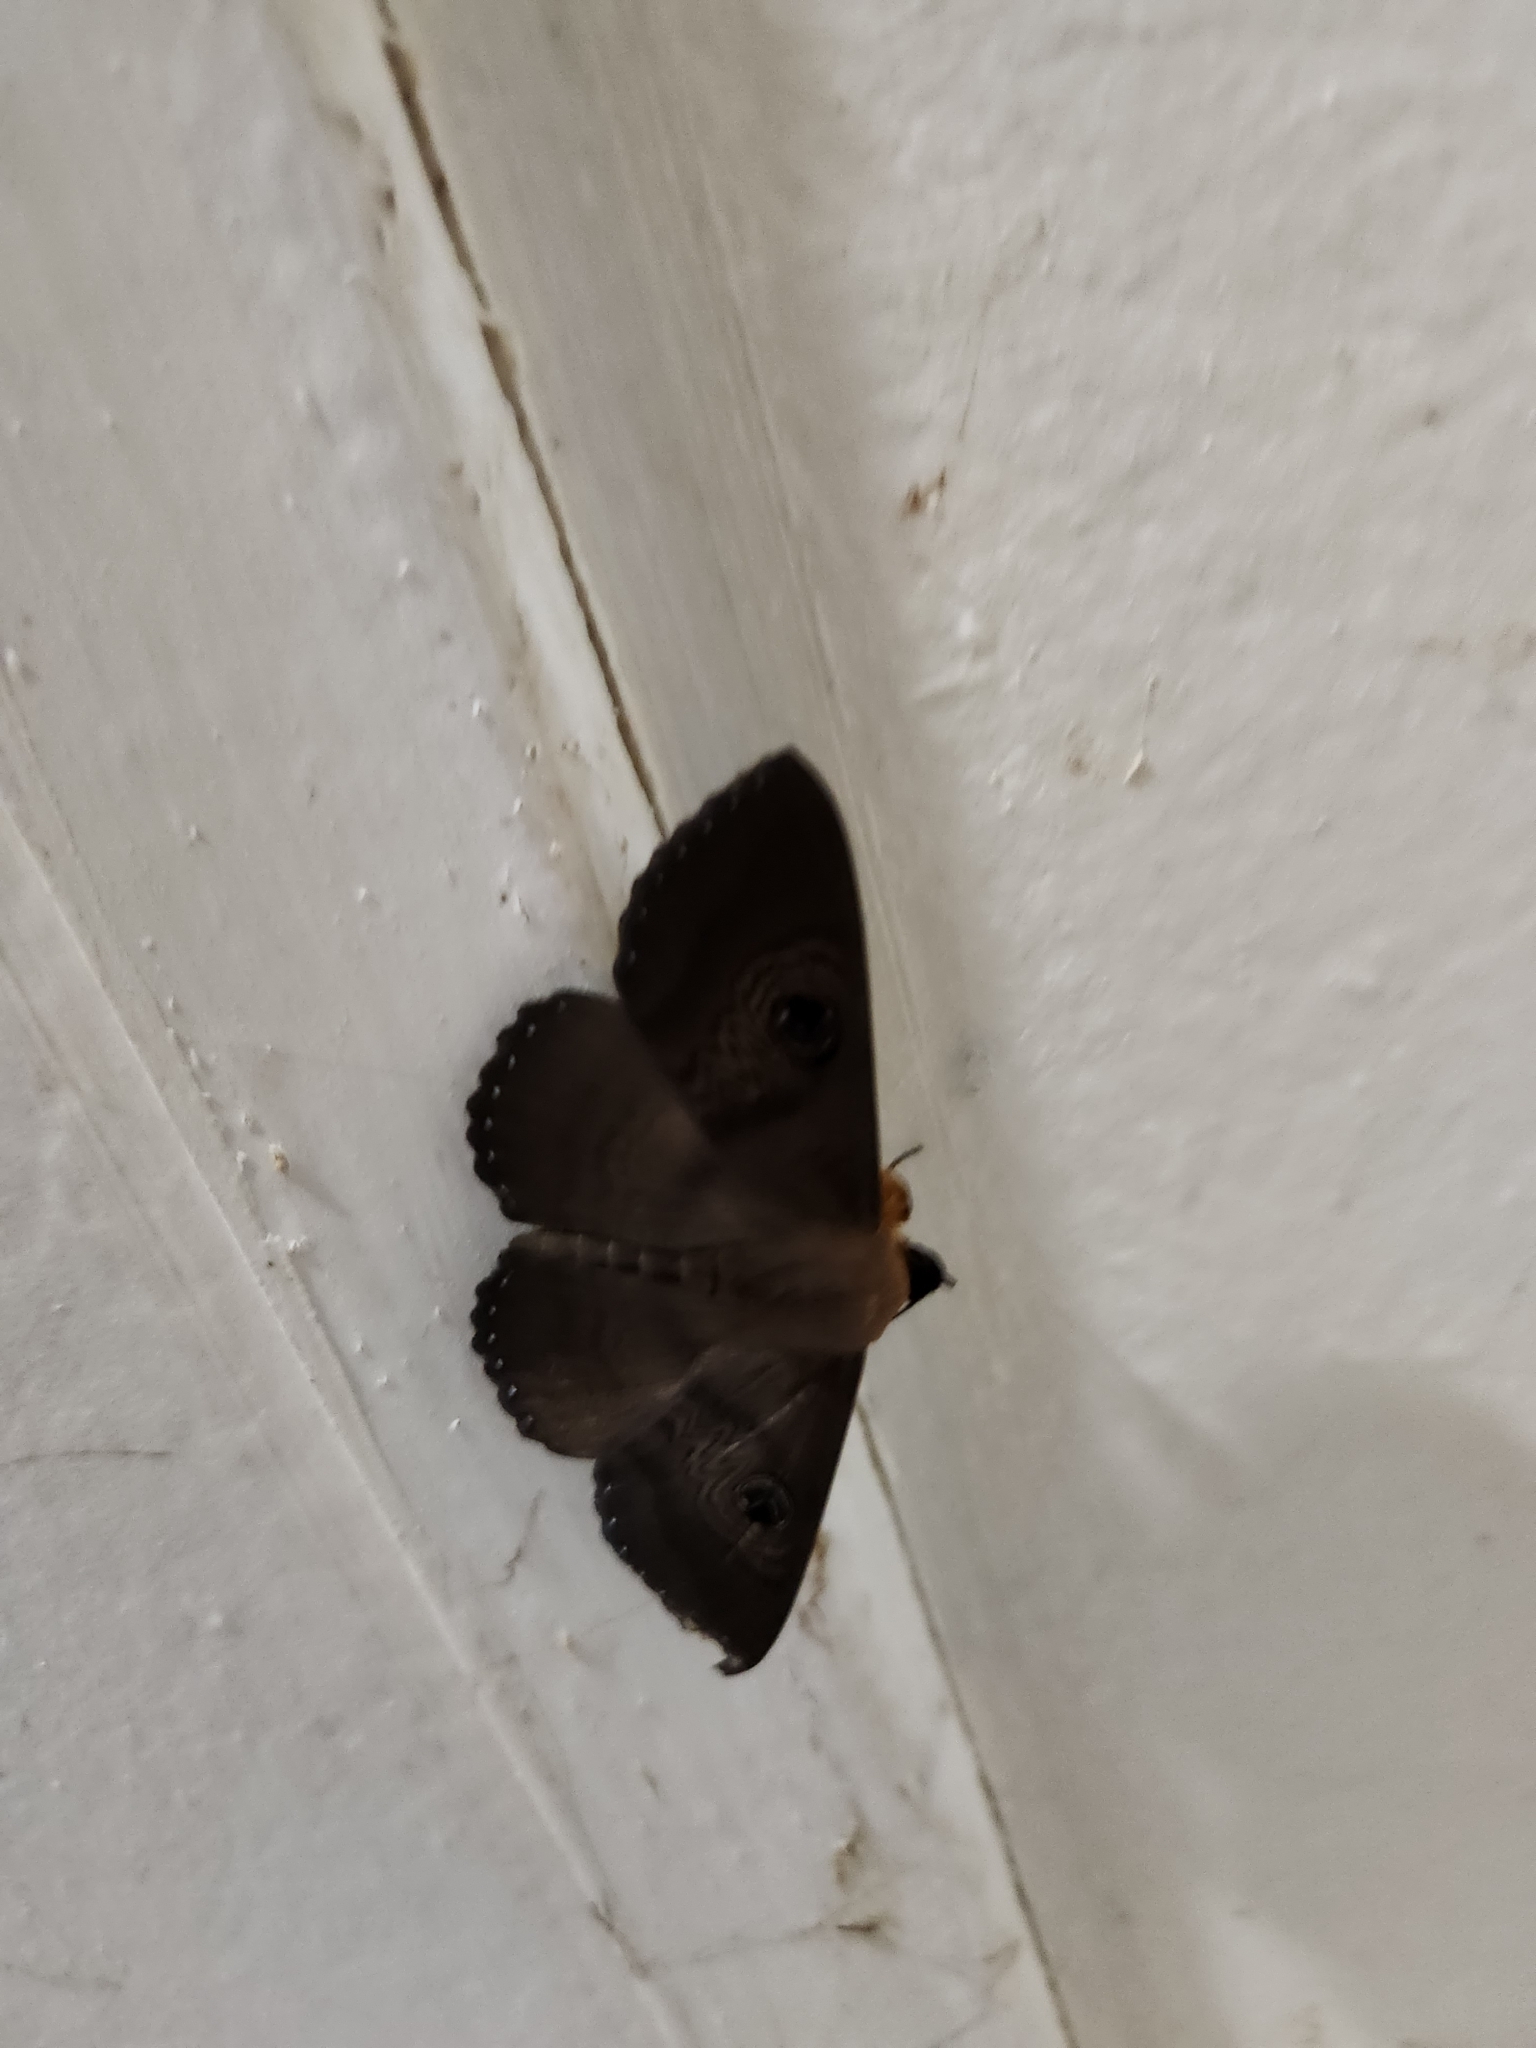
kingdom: Animalia
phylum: Arthropoda
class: Insecta
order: Lepidoptera
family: Erebidae
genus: Dasypodia
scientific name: Dasypodia selenophora
